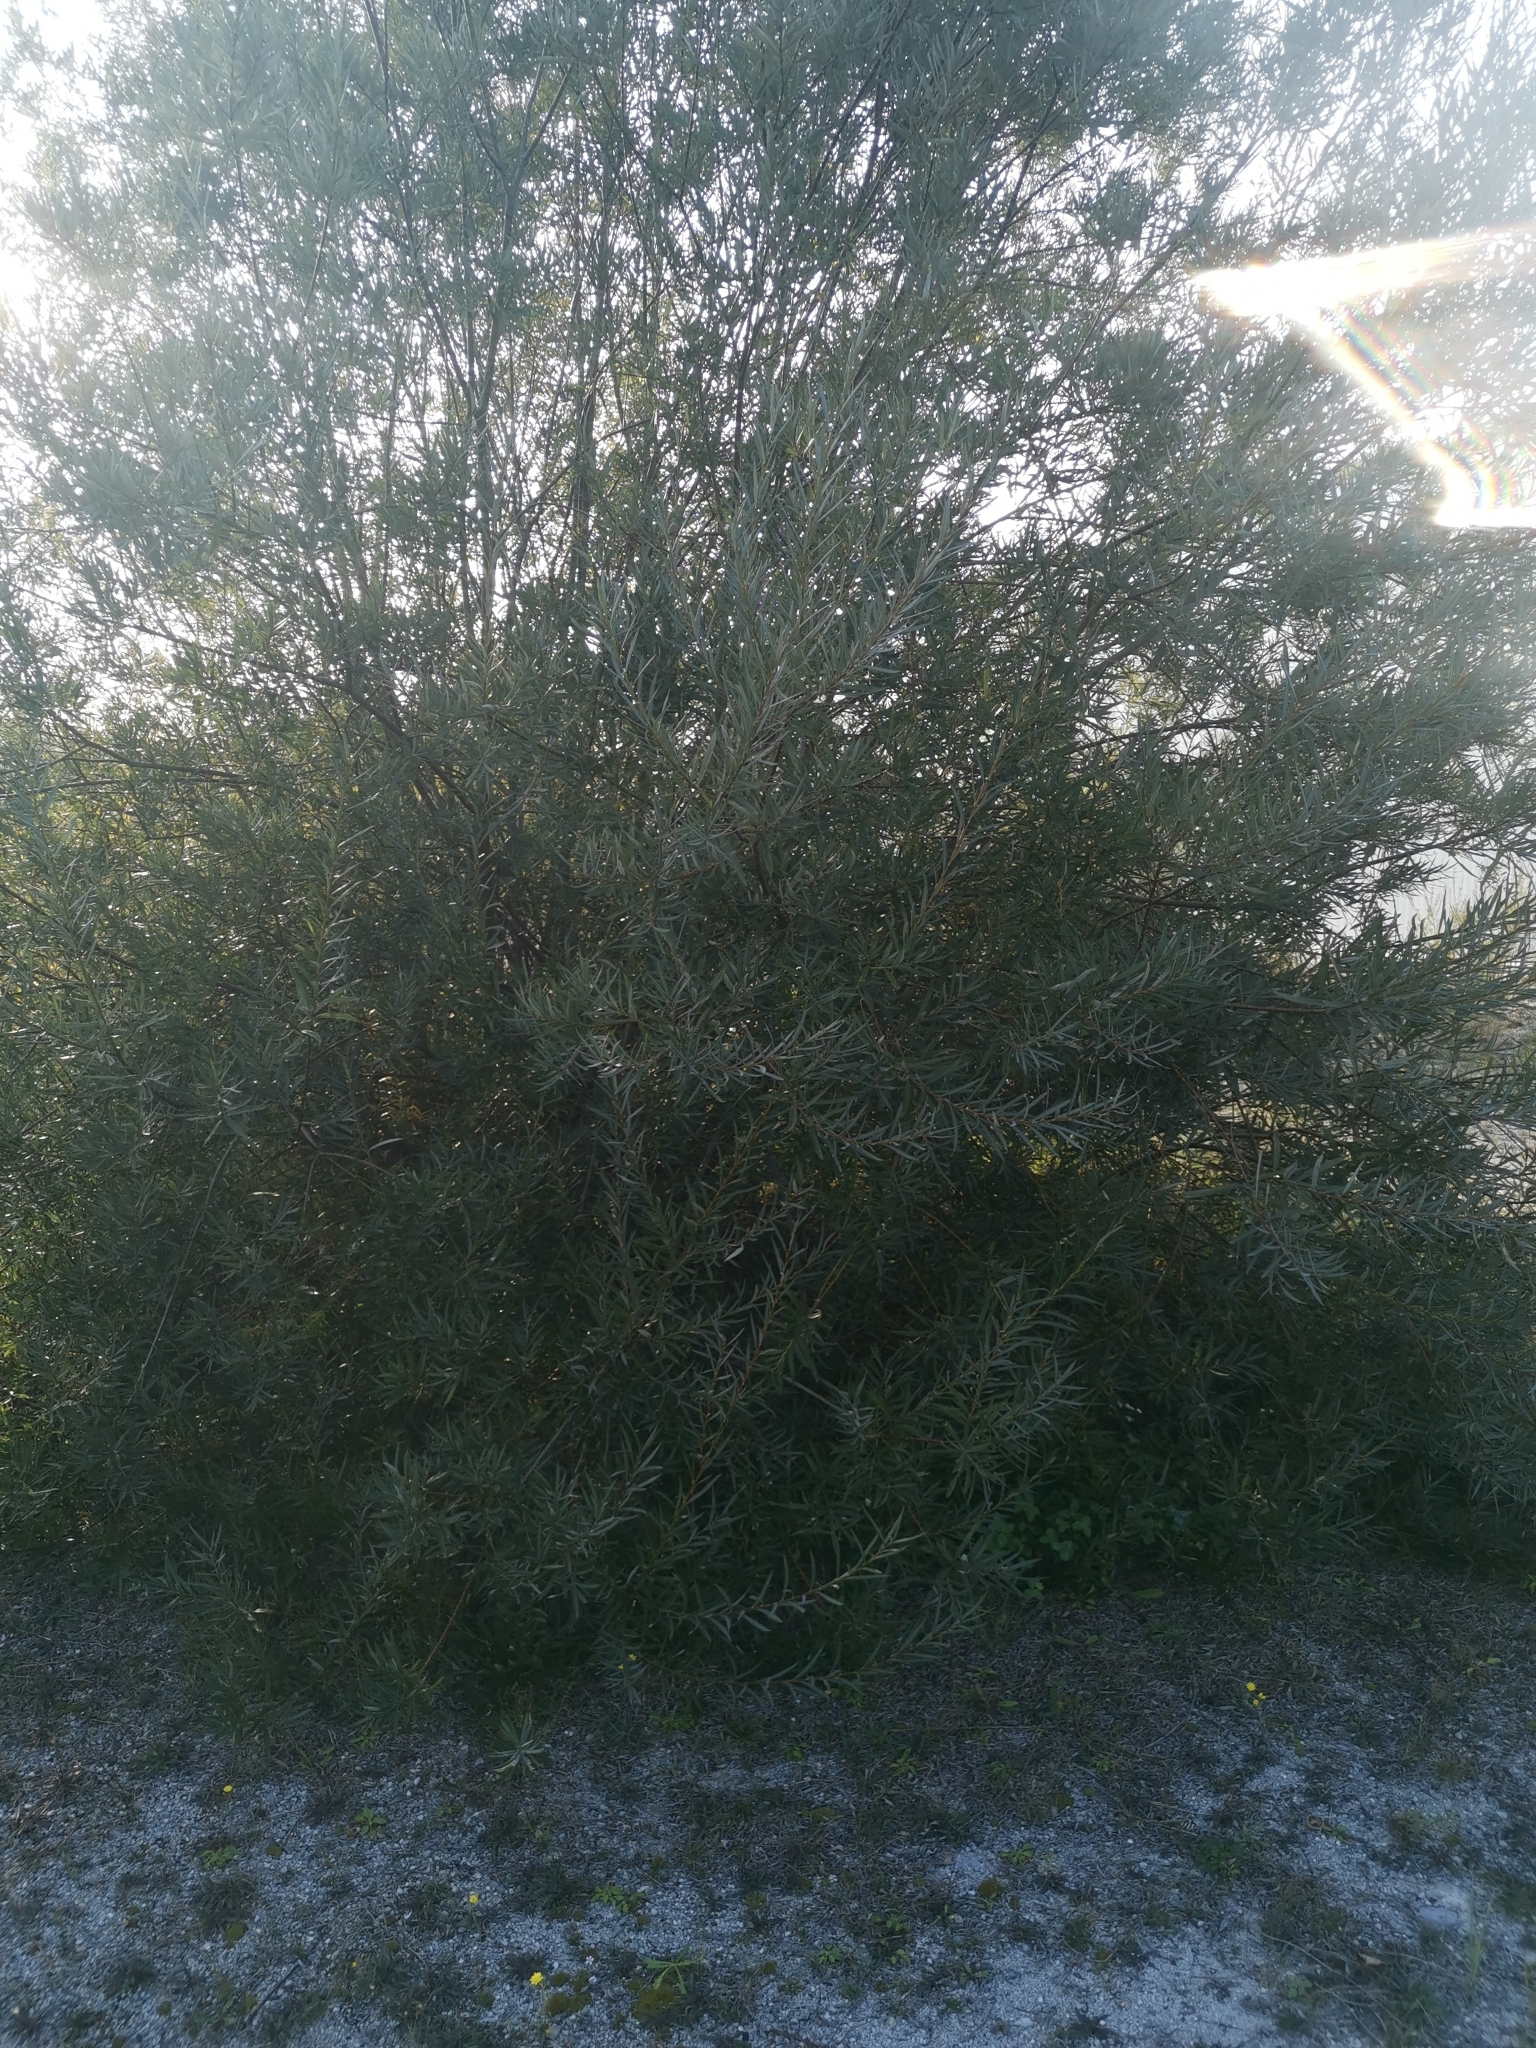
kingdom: Plantae
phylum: Tracheophyta
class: Magnoliopsida
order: Malpighiales
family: Salicaceae
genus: Salix
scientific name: Salix eleagnos
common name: Elaeagnus willow
